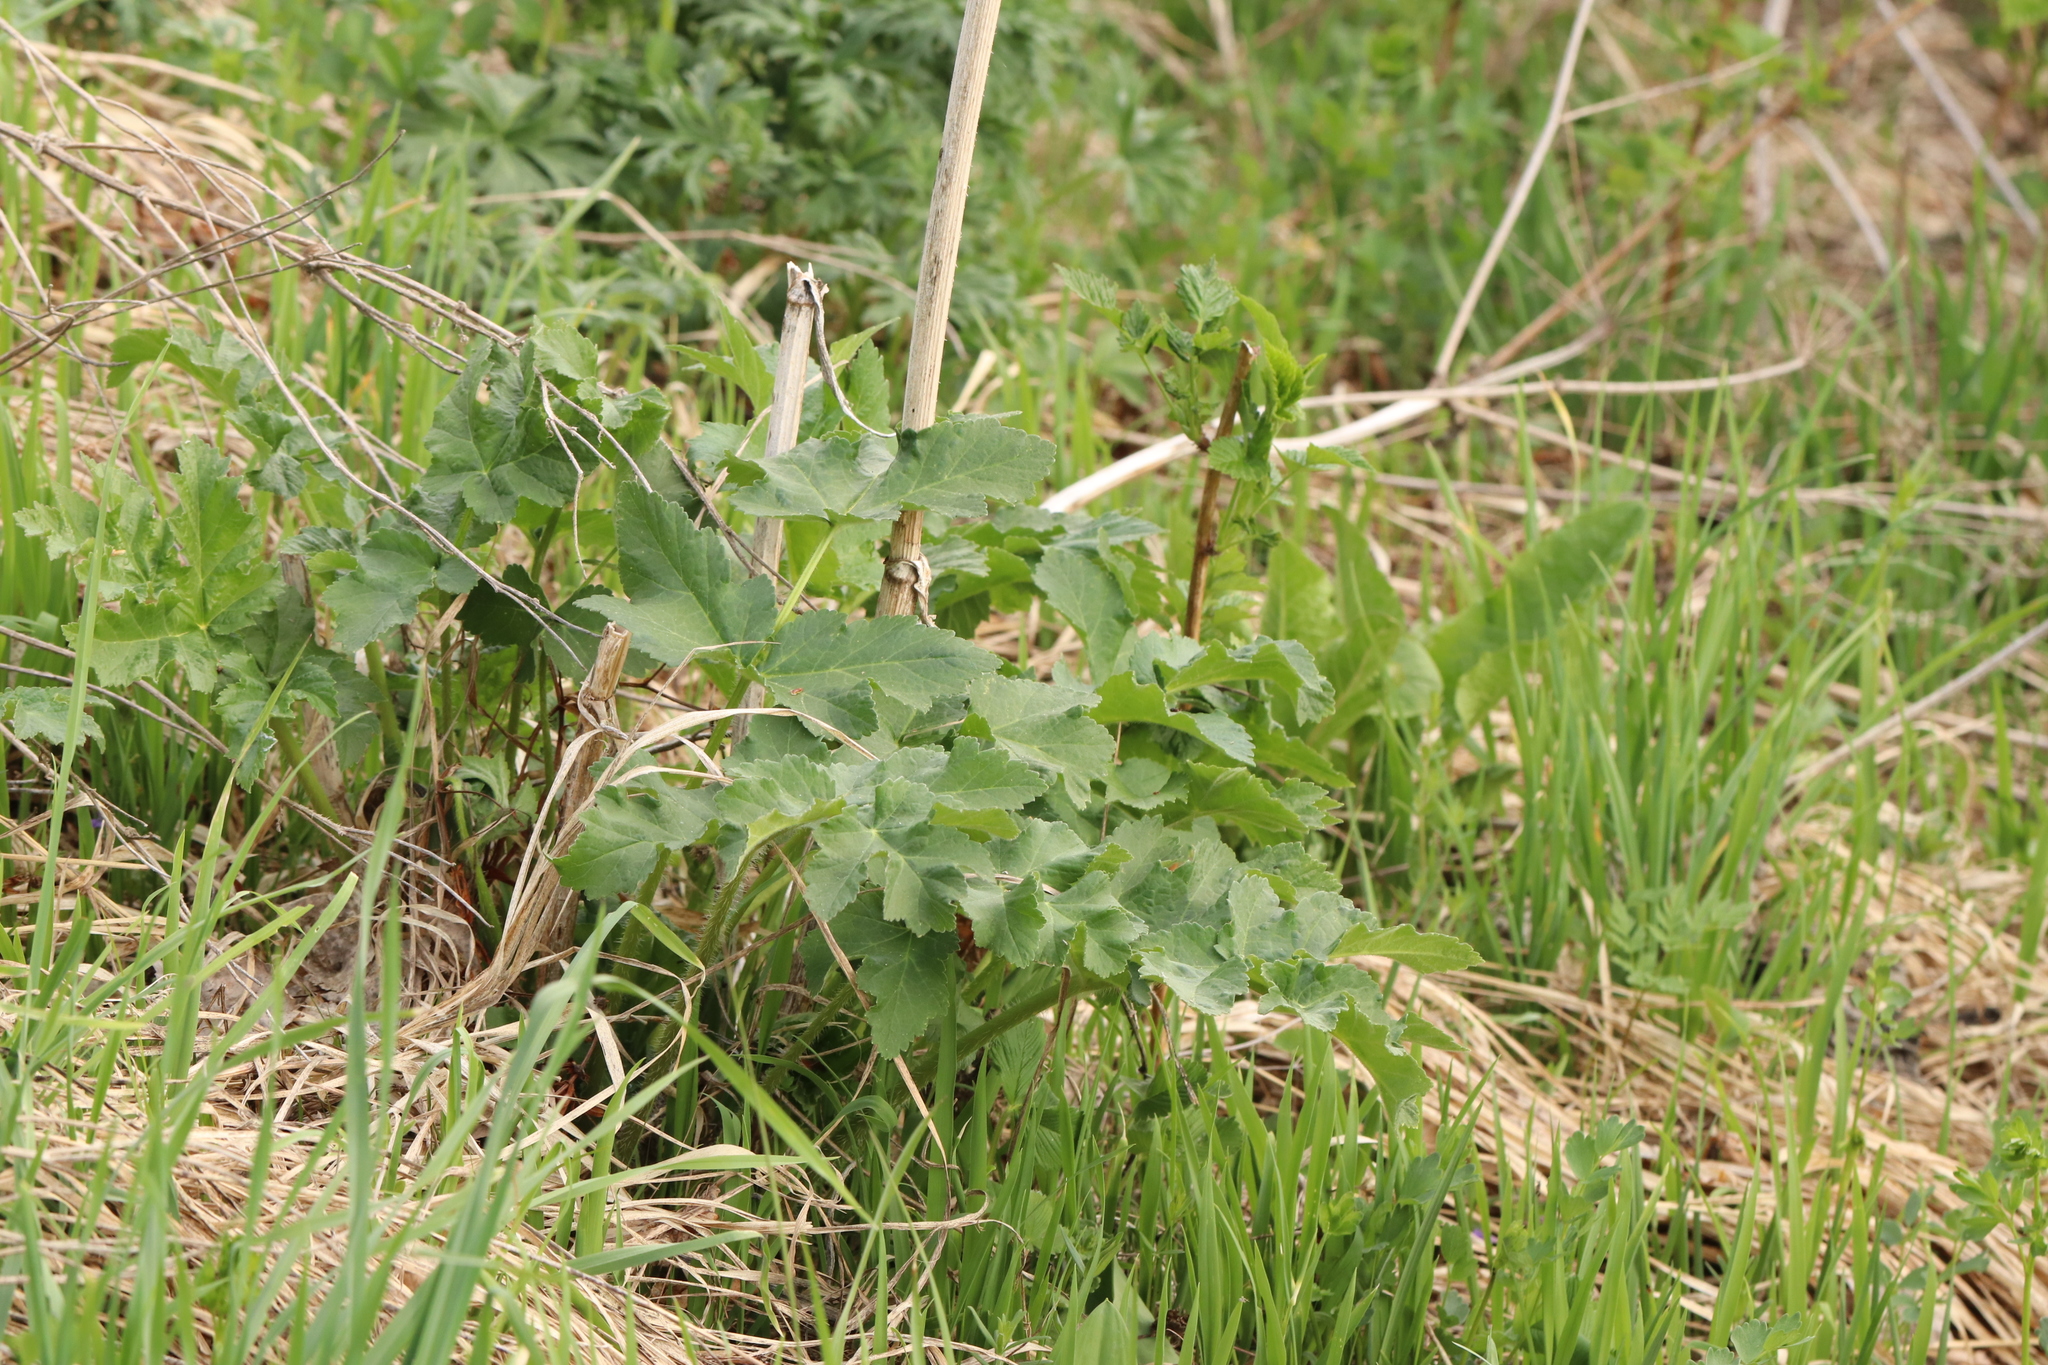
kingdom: Plantae
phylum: Tracheophyta
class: Magnoliopsida
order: Apiales
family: Apiaceae
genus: Heracleum
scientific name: Heracleum dissectum
